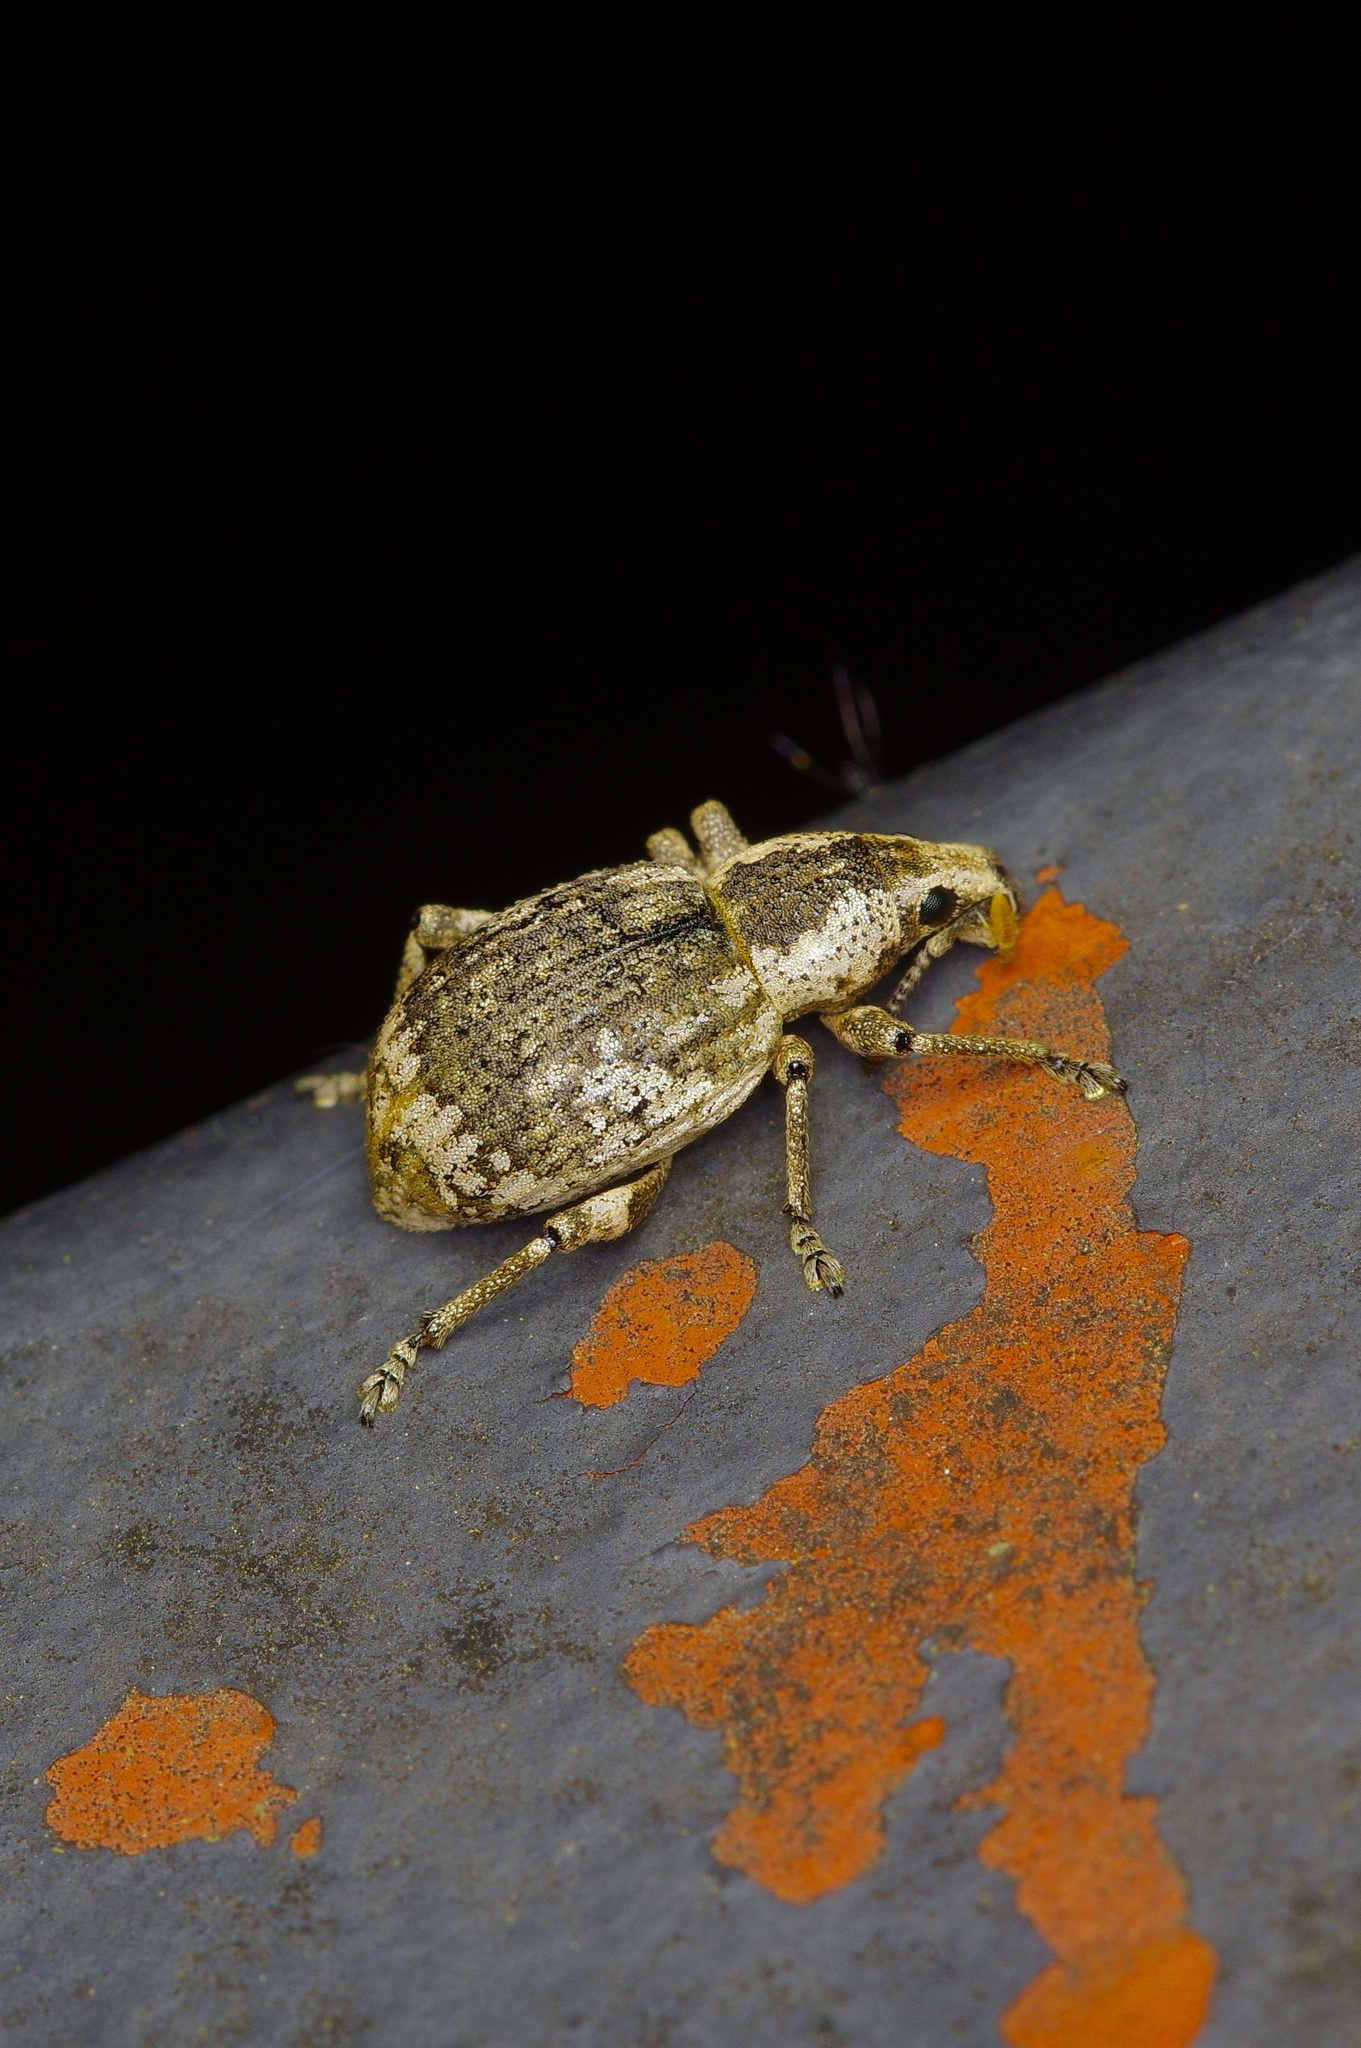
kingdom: Animalia
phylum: Arthropoda
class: Insecta
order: Coleoptera
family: Curculionidae
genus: Omileus
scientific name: Omileus epicaeroides
